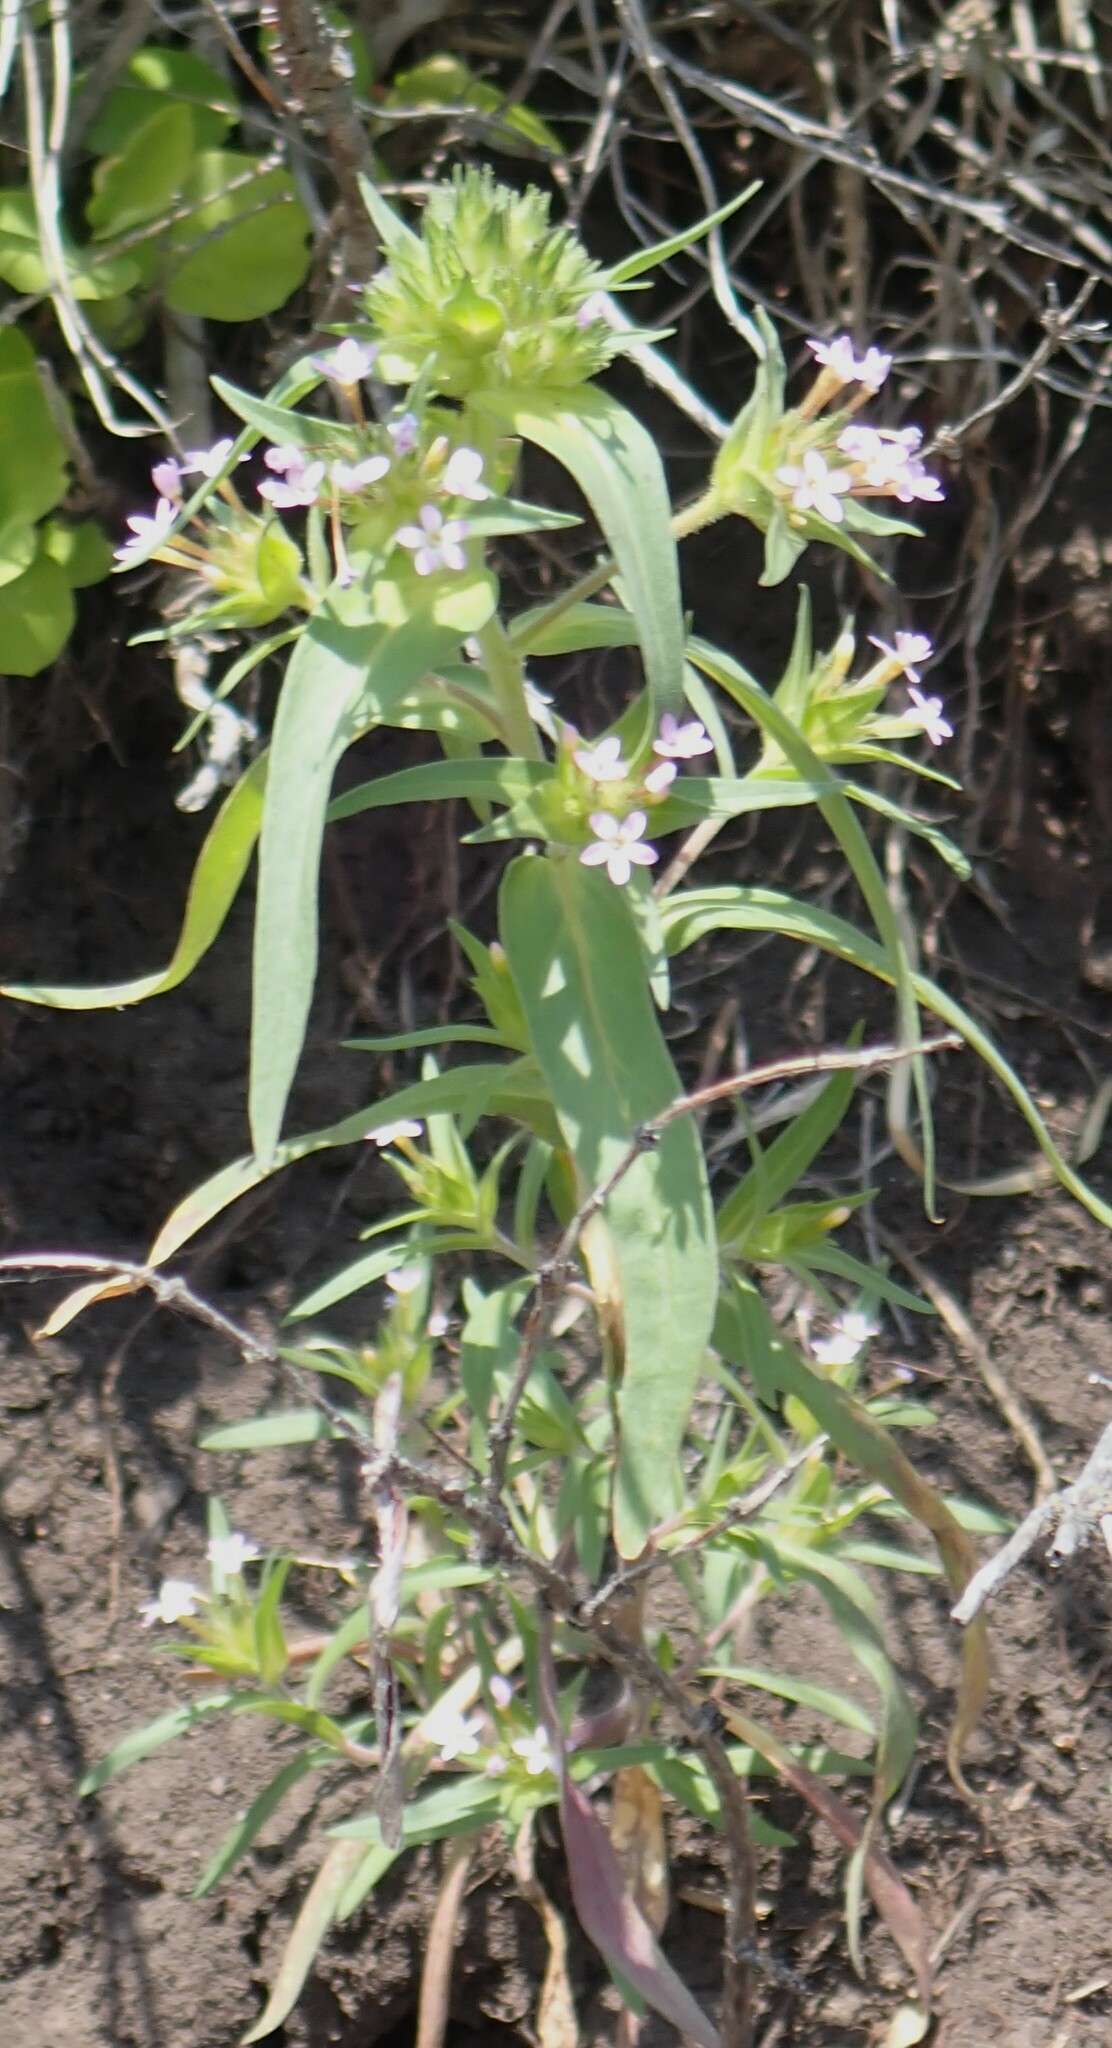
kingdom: Plantae
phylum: Tracheophyta
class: Magnoliopsida
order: Ericales
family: Polemoniaceae
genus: Collomia
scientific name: Collomia linearis
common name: Tiny trumpet
